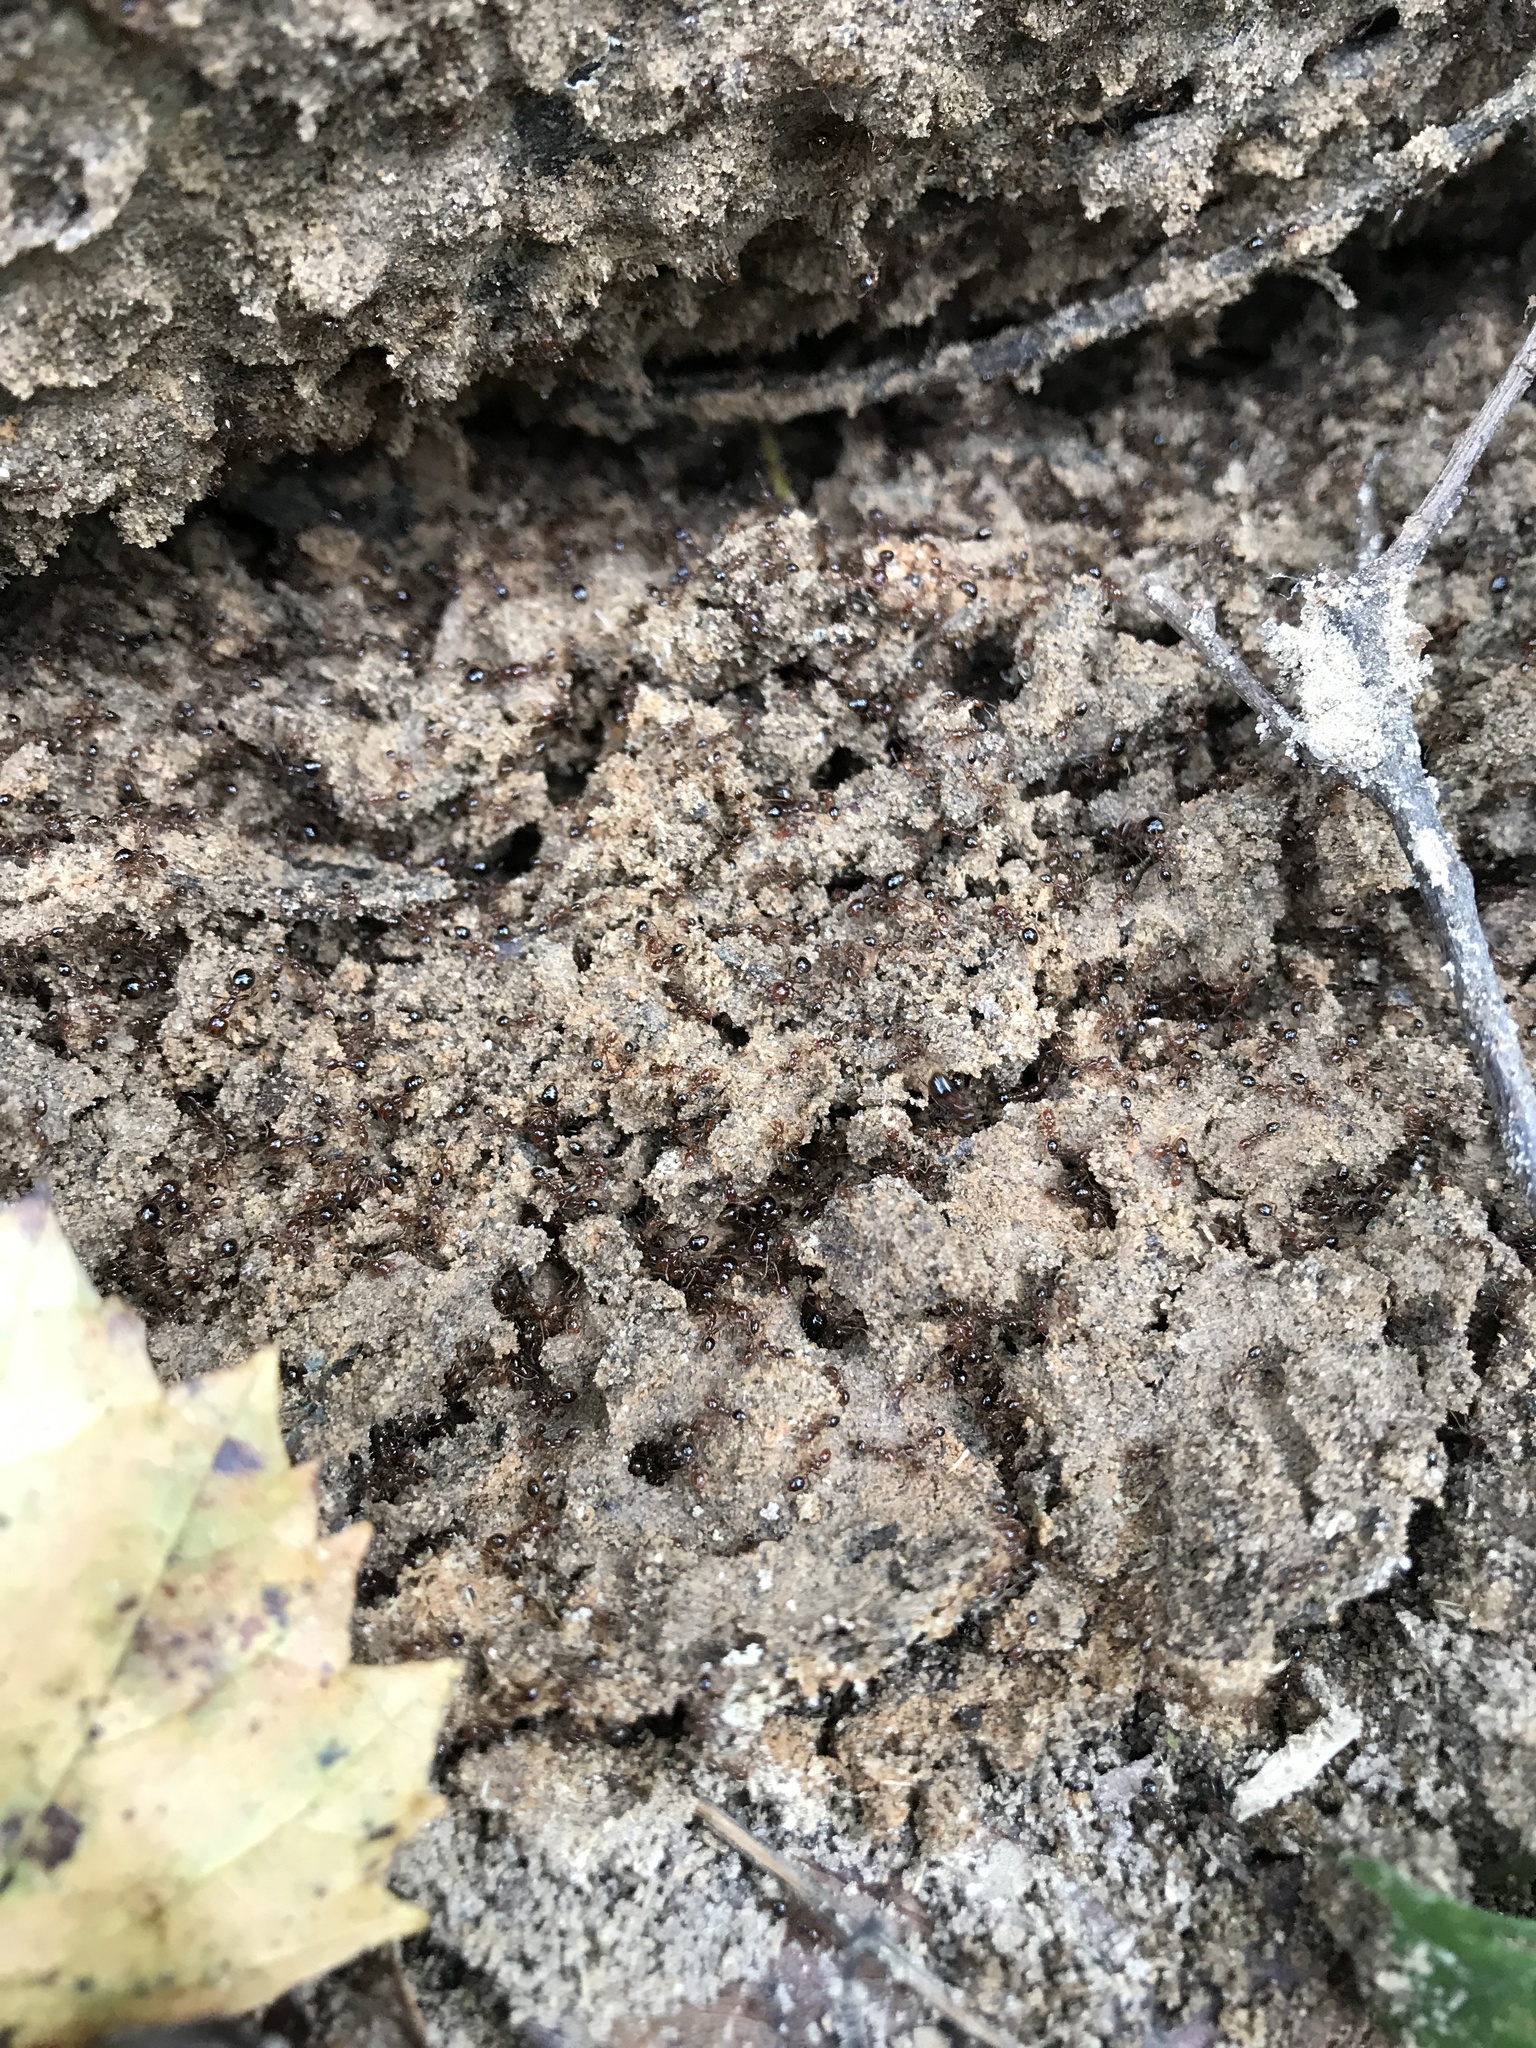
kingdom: Animalia
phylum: Arthropoda
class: Insecta
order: Hymenoptera
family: Formicidae
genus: Solenopsis
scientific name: Solenopsis invicta
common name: Red imported fire ant
